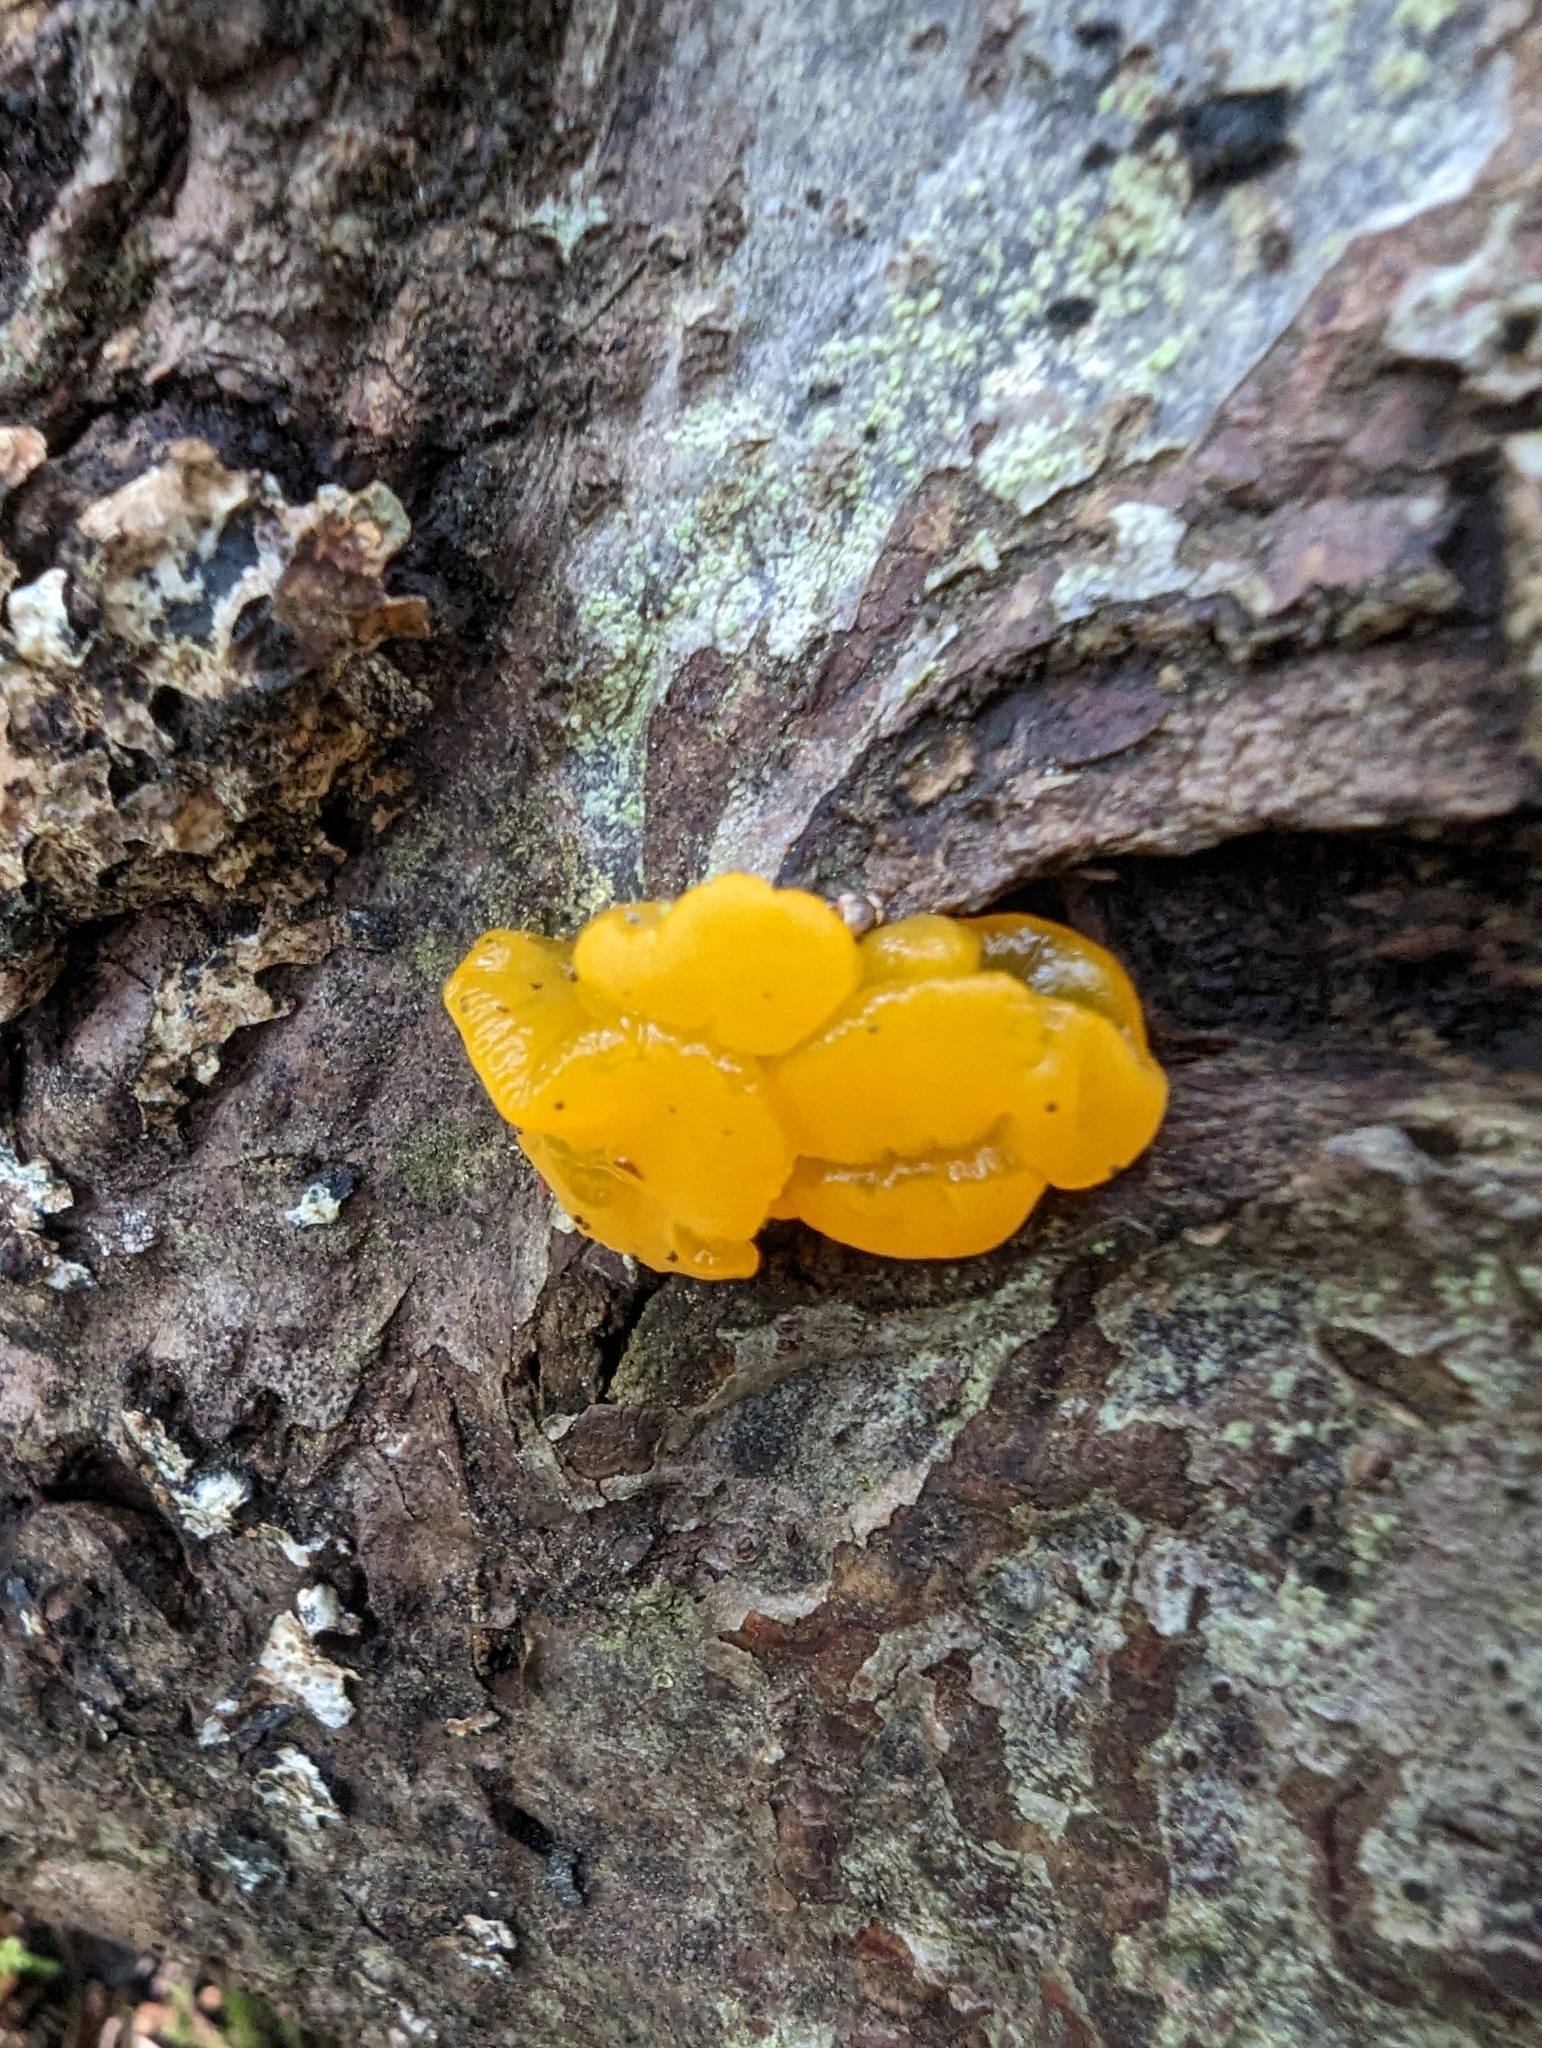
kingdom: Fungi
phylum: Basidiomycota
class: Tremellomycetes
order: Tremellales
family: Tremellaceae
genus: Tremella
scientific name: Tremella mesenterica
